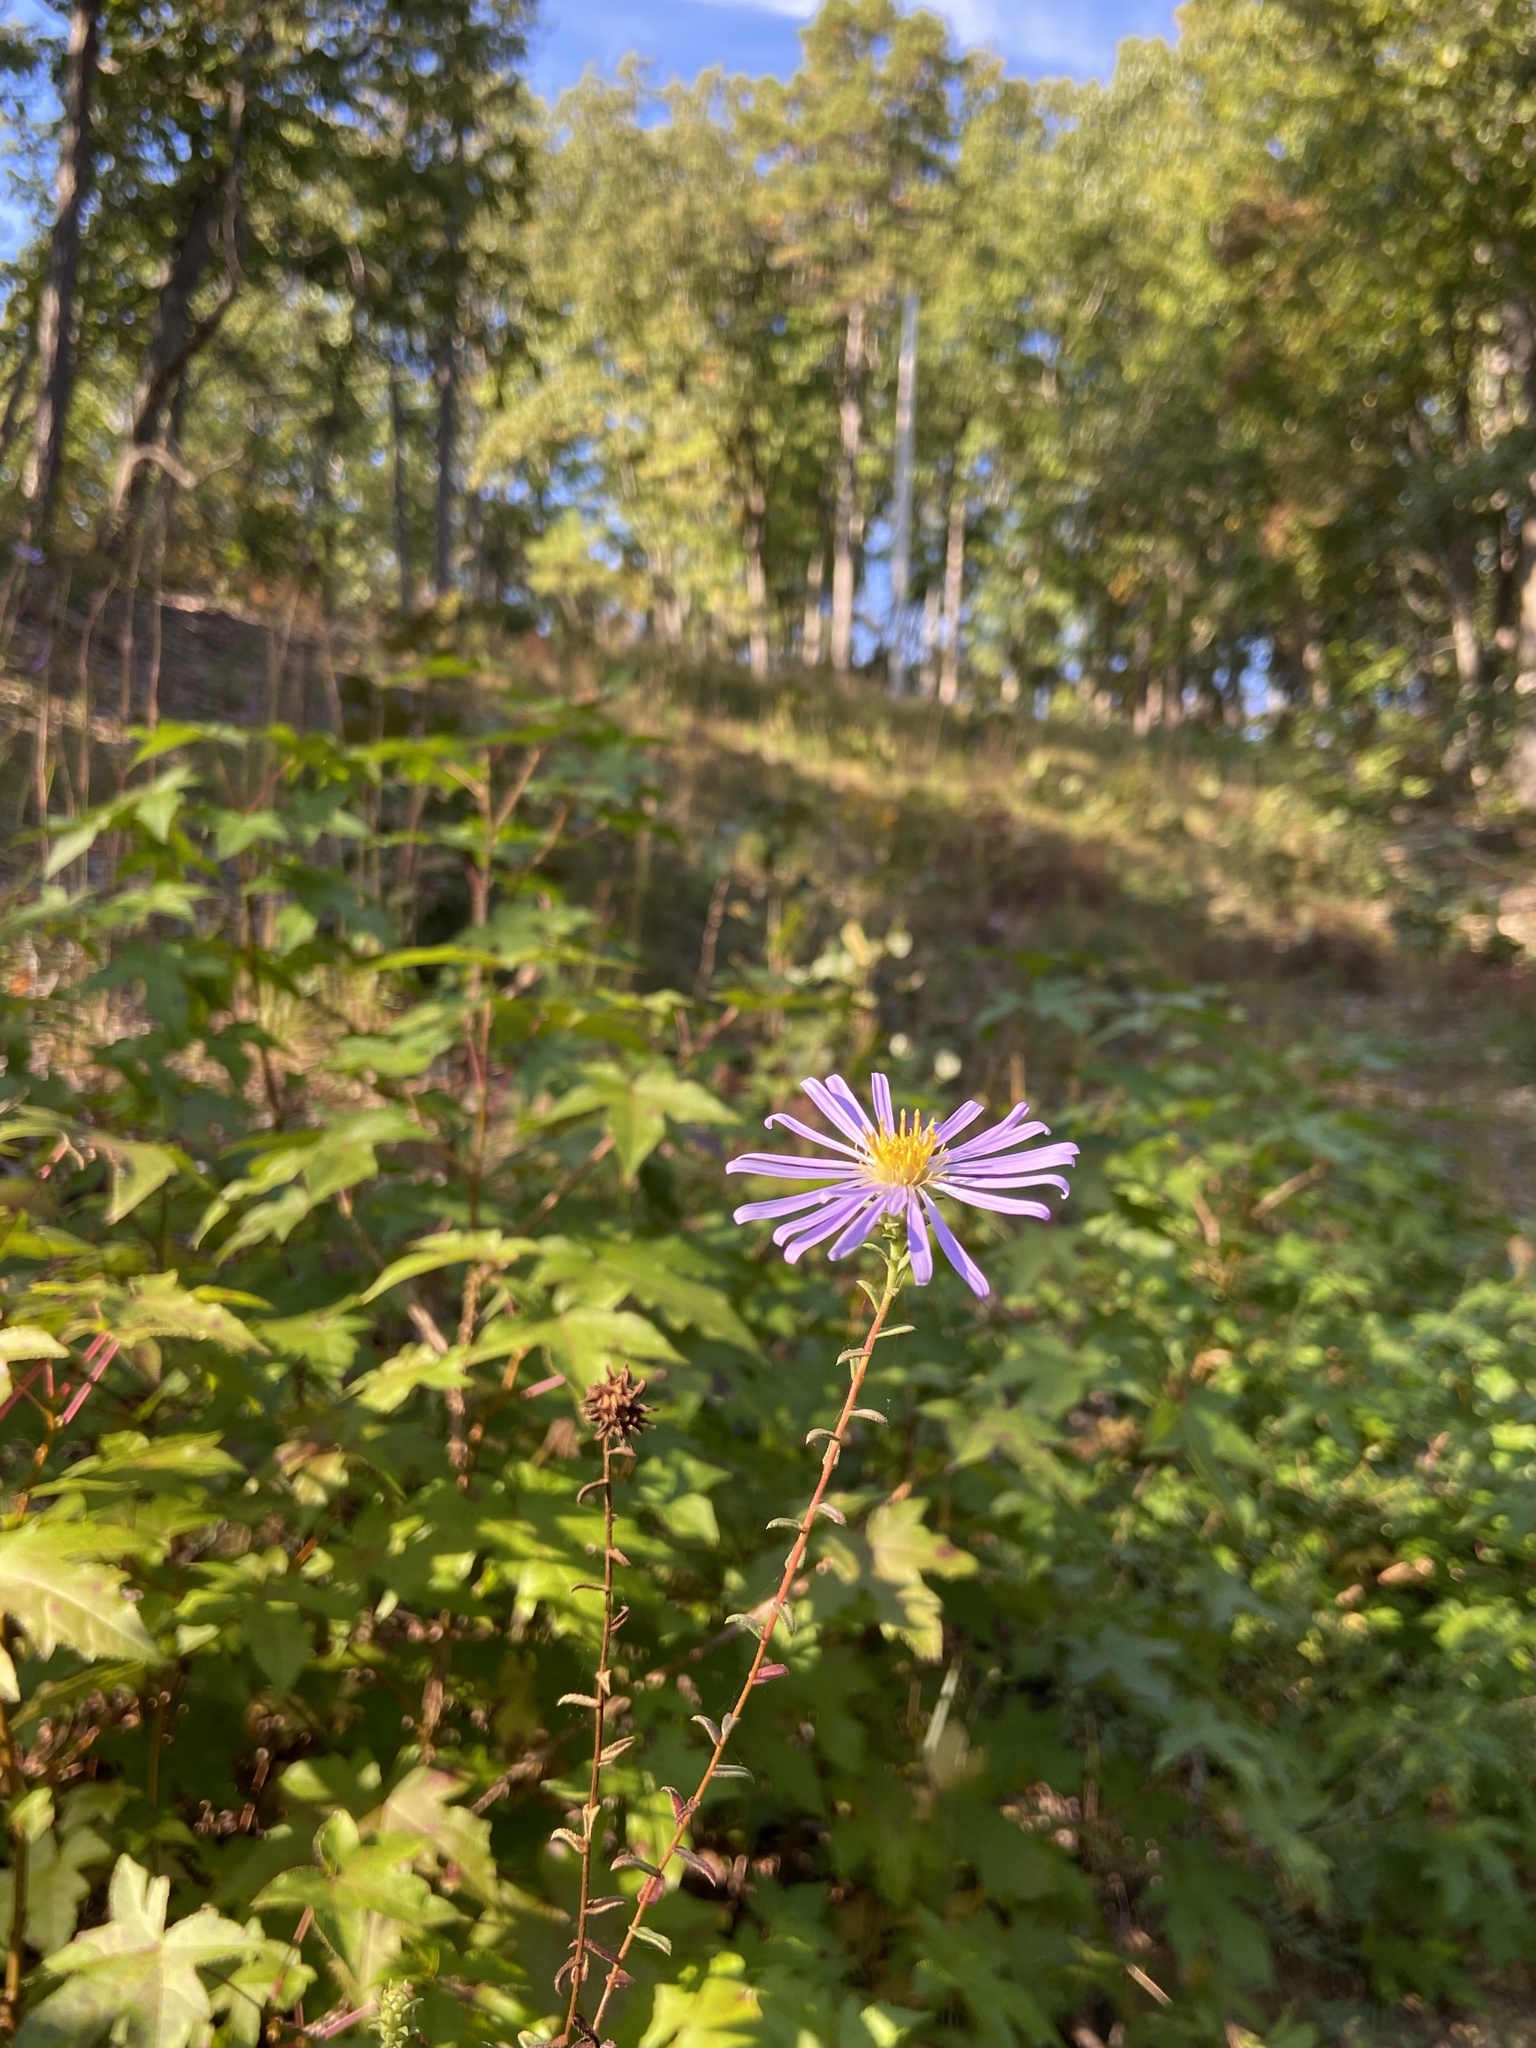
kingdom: Plantae
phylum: Tracheophyta
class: Magnoliopsida
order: Asterales
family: Asteraceae
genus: Symphyotrichum
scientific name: Symphyotrichum grandiflorum
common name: Big-head aster
